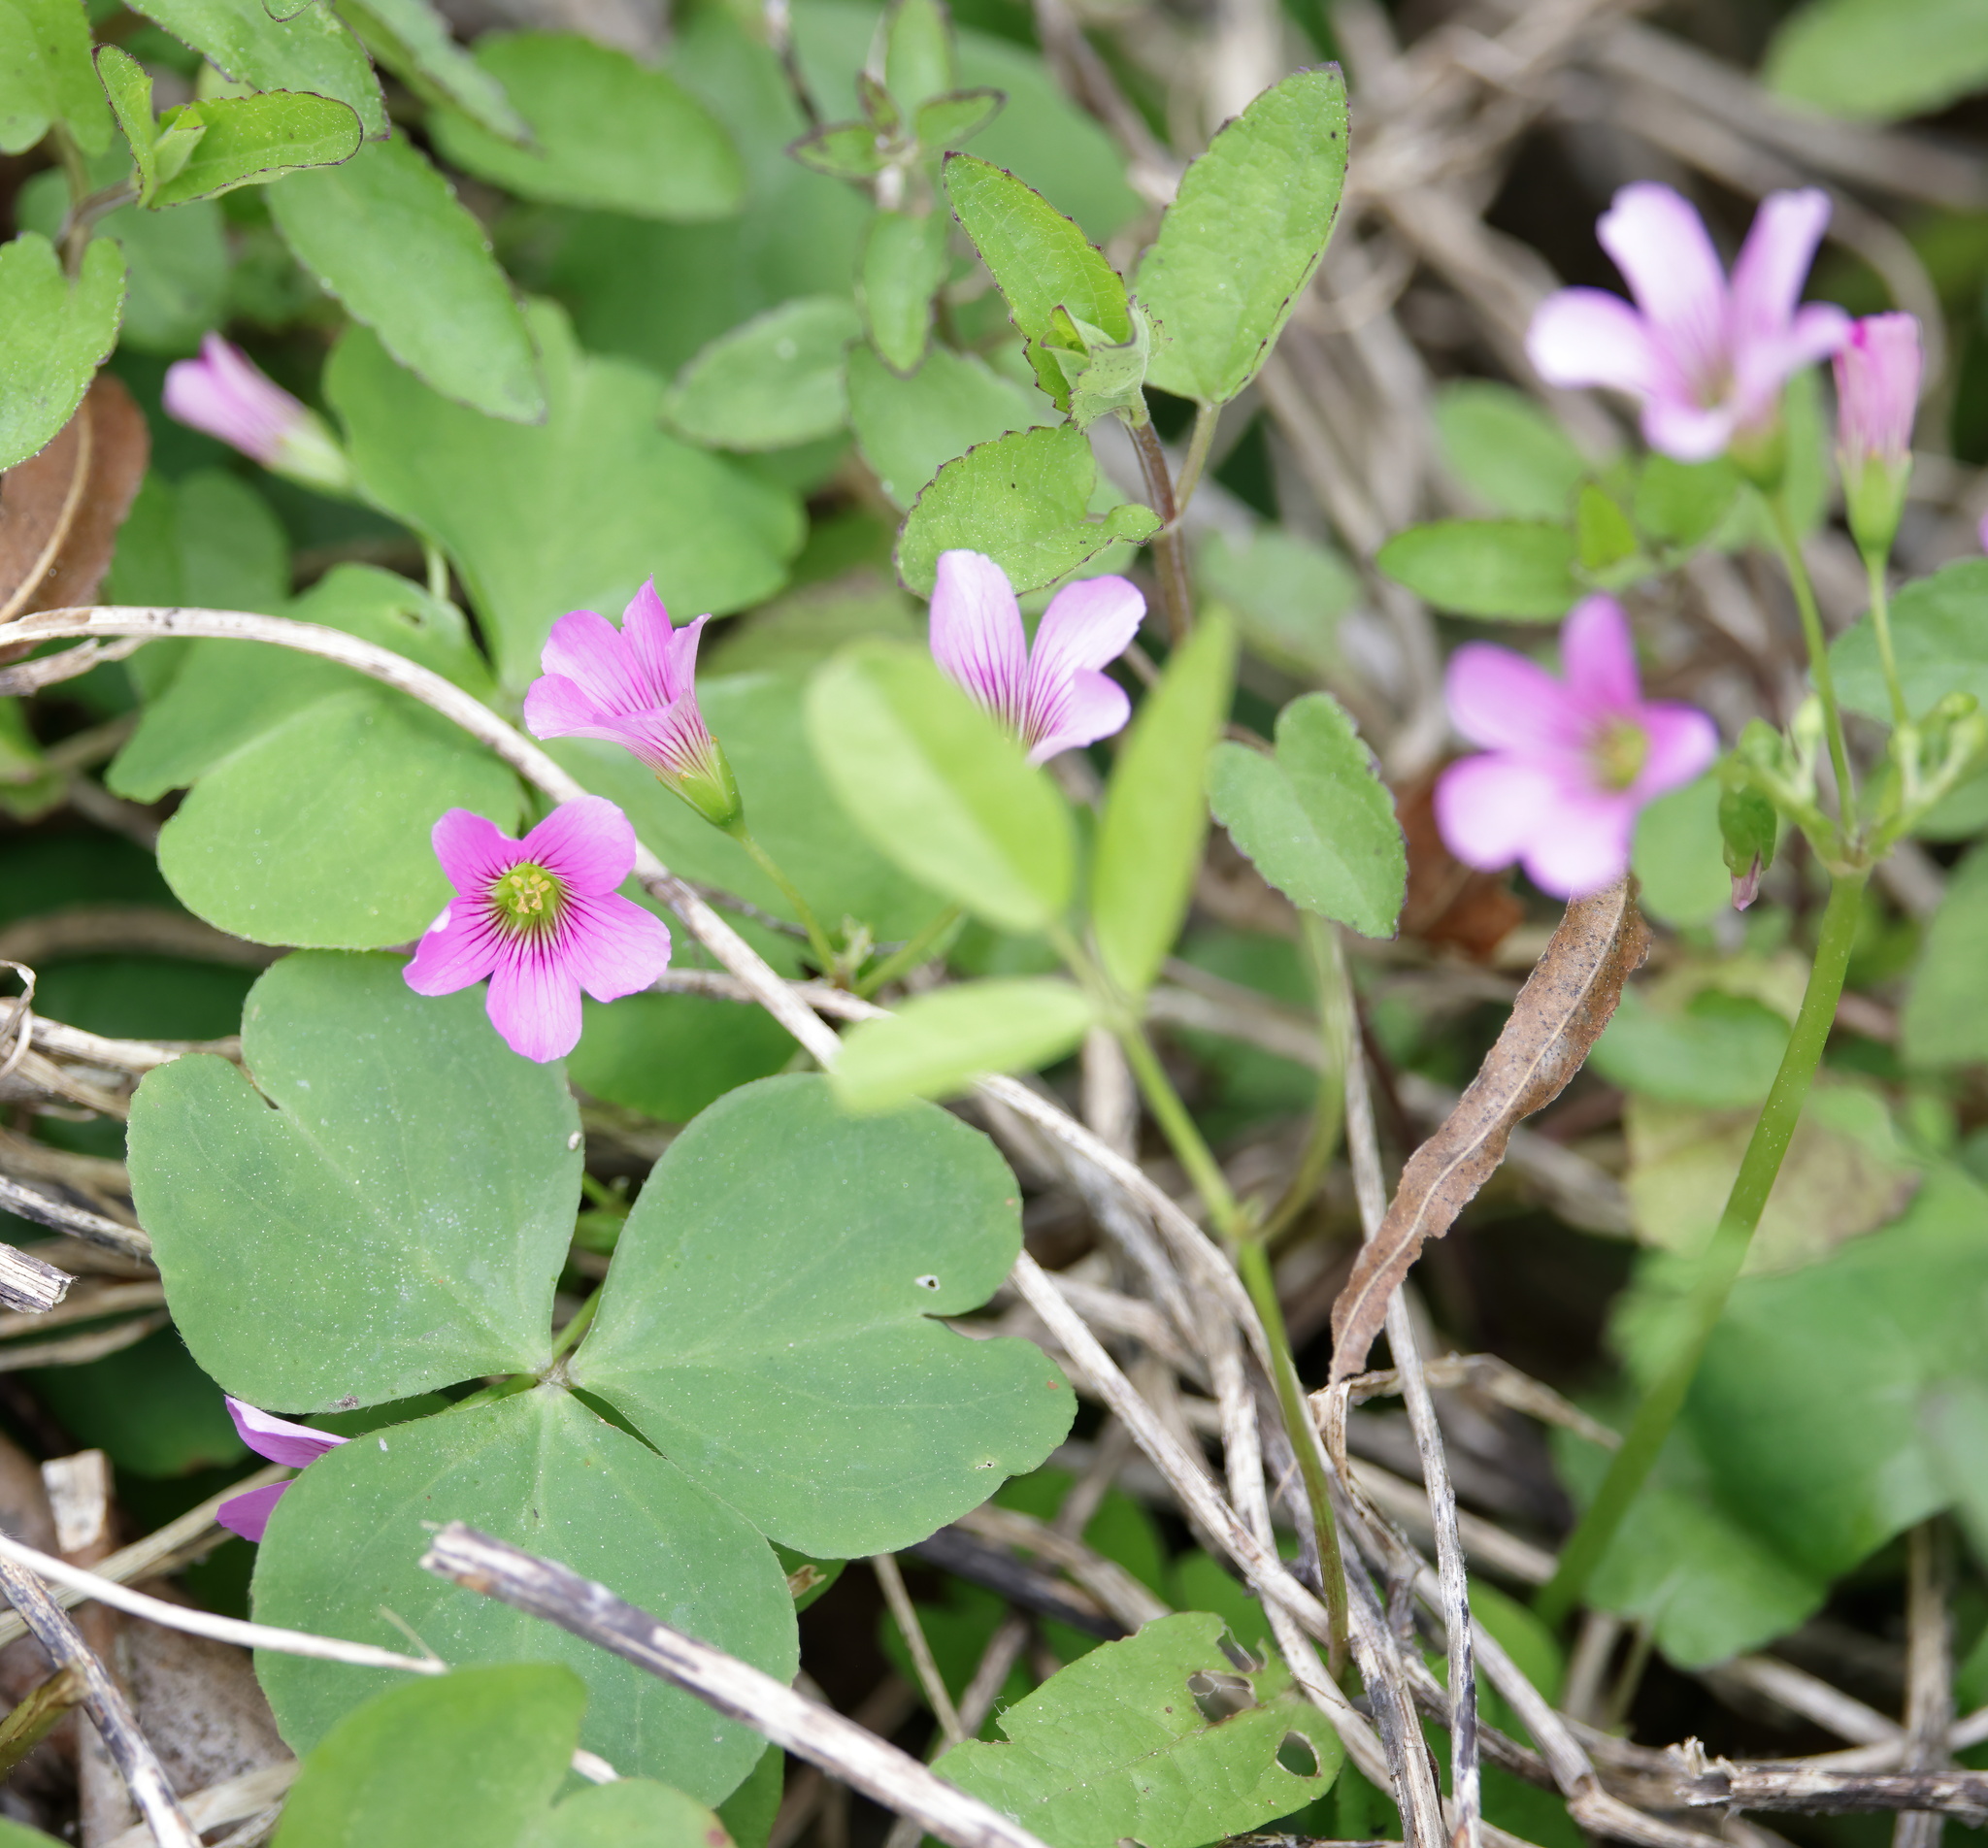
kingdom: Plantae
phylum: Tracheophyta
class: Magnoliopsida
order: Oxalidales
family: Oxalidaceae
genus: Oxalis
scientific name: Oxalis debilis
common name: Large-flowered pink-sorrel
